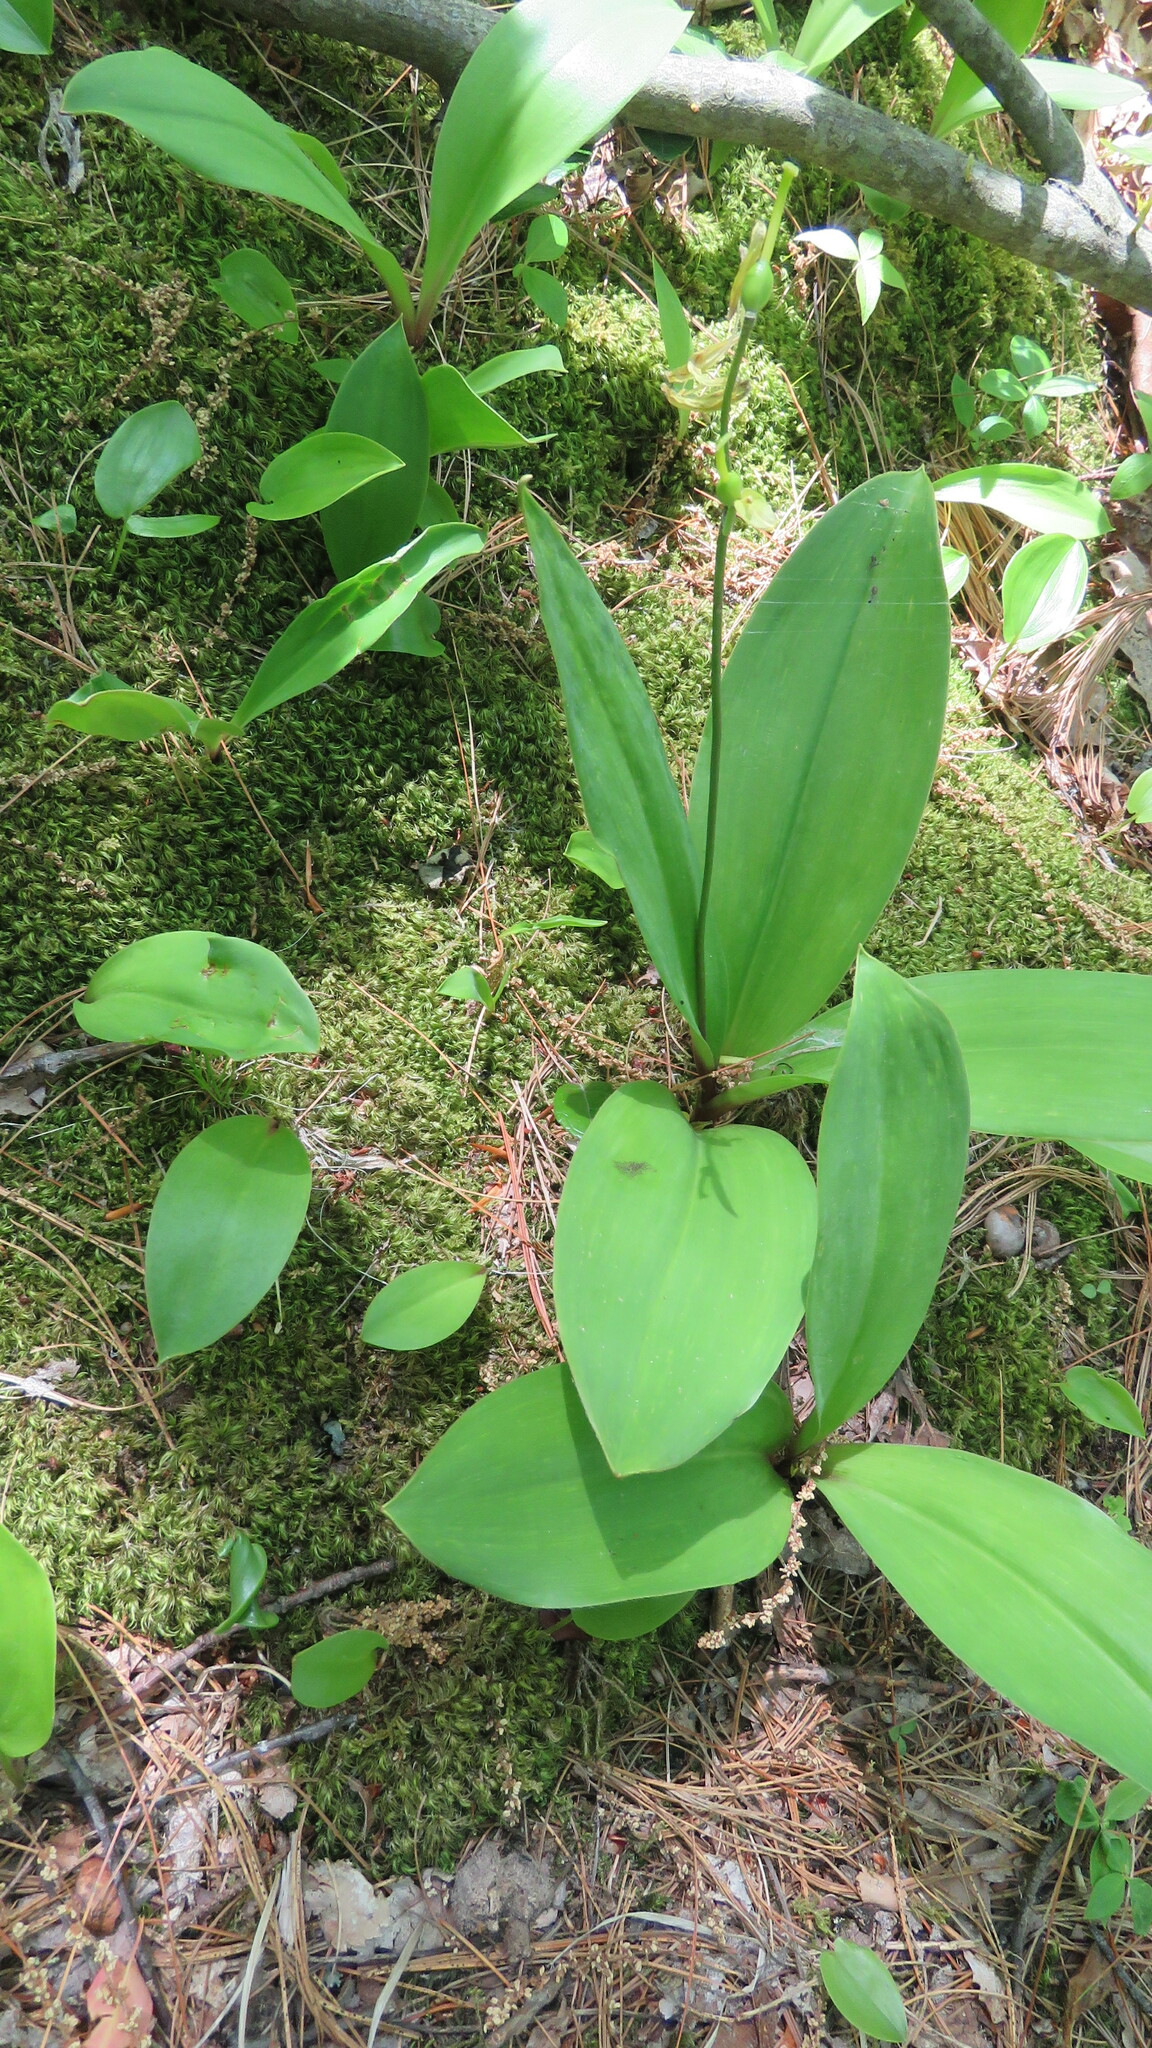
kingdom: Plantae
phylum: Tracheophyta
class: Liliopsida
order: Liliales
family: Liliaceae
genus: Clintonia
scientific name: Clintonia borealis
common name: Yellow clintonia
